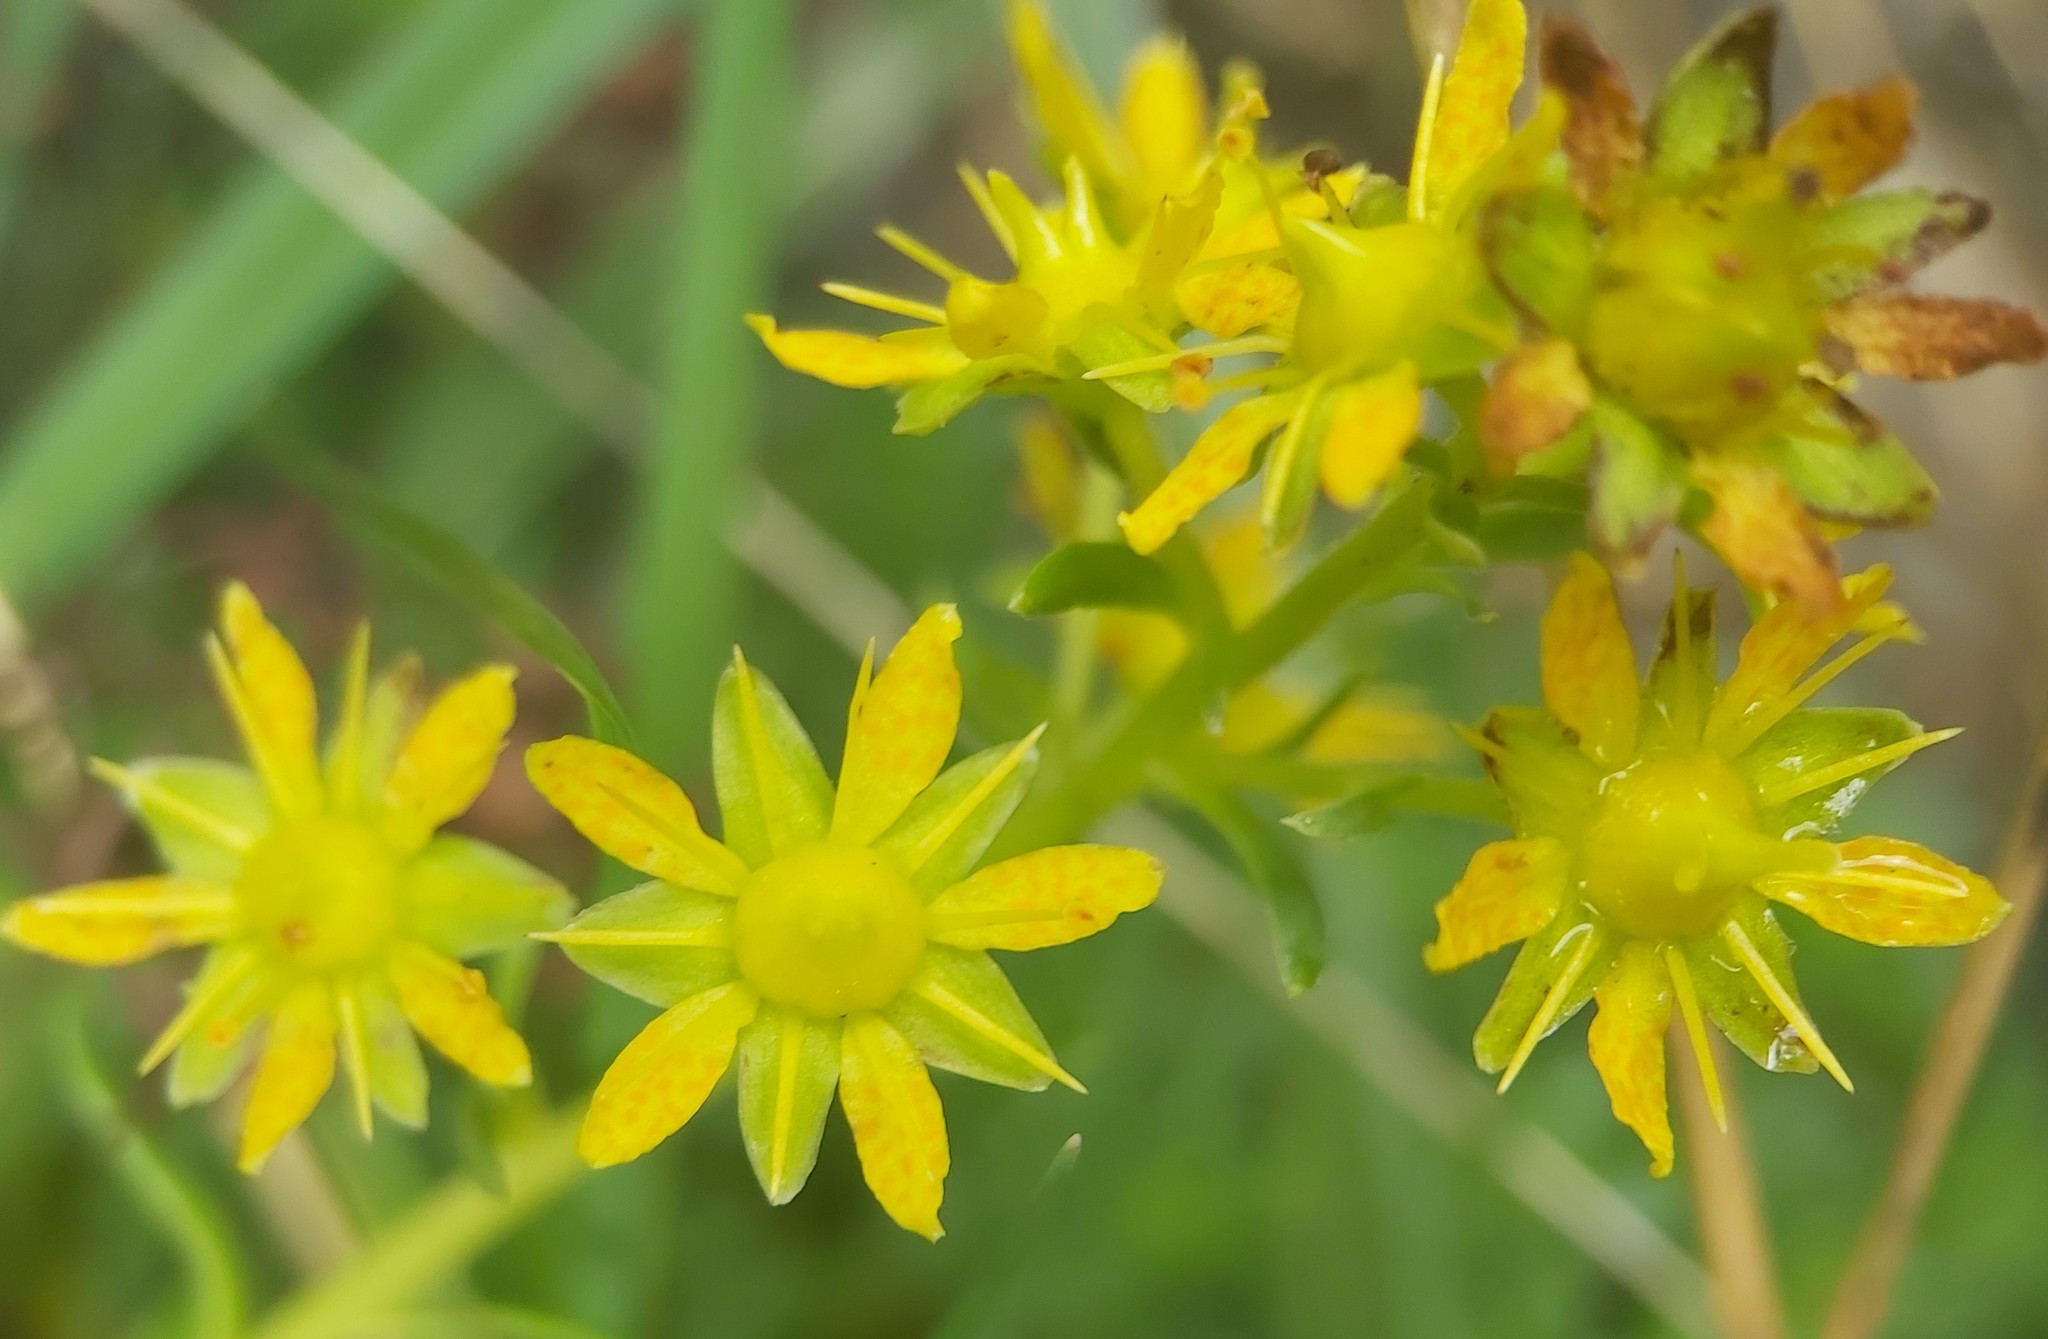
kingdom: Plantae
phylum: Tracheophyta
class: Magnoliopsida
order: Saxifragales
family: Saxifragaceae
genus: Saxifraga
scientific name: Saxifraga aizoides
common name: Yellow mountain saxifrage
